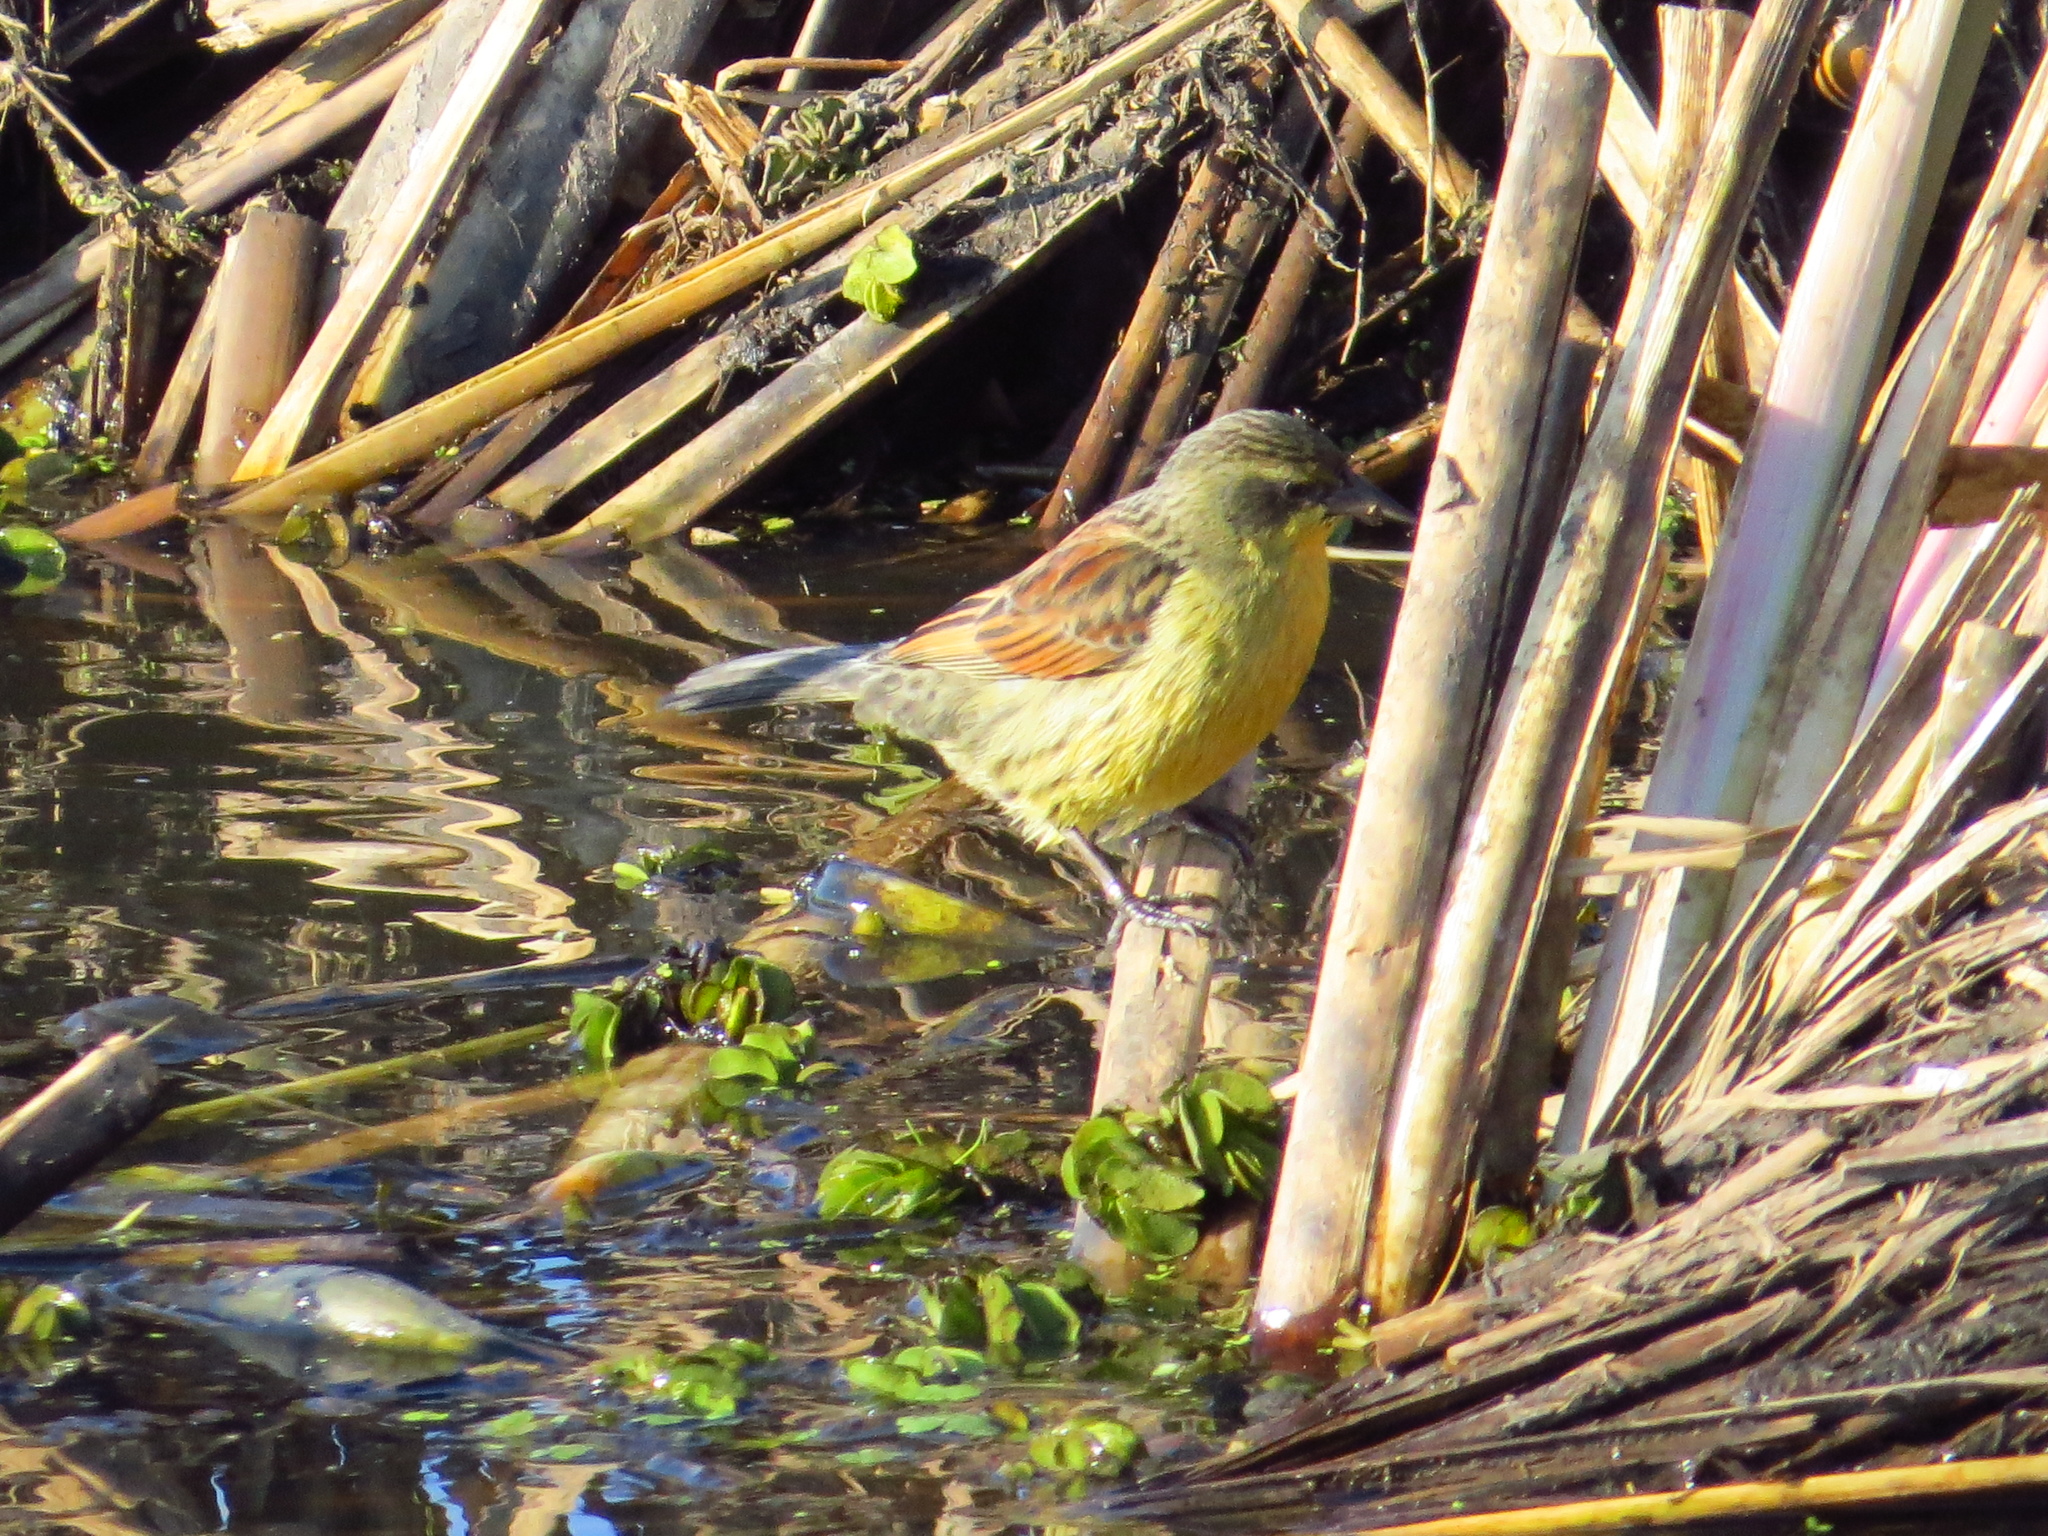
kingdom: Animalia
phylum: Chordata
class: Aves
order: Passeriformes
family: Icteridae
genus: Agelasticus
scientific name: Agelasticus cyanopus
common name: Unicolored blackbird
